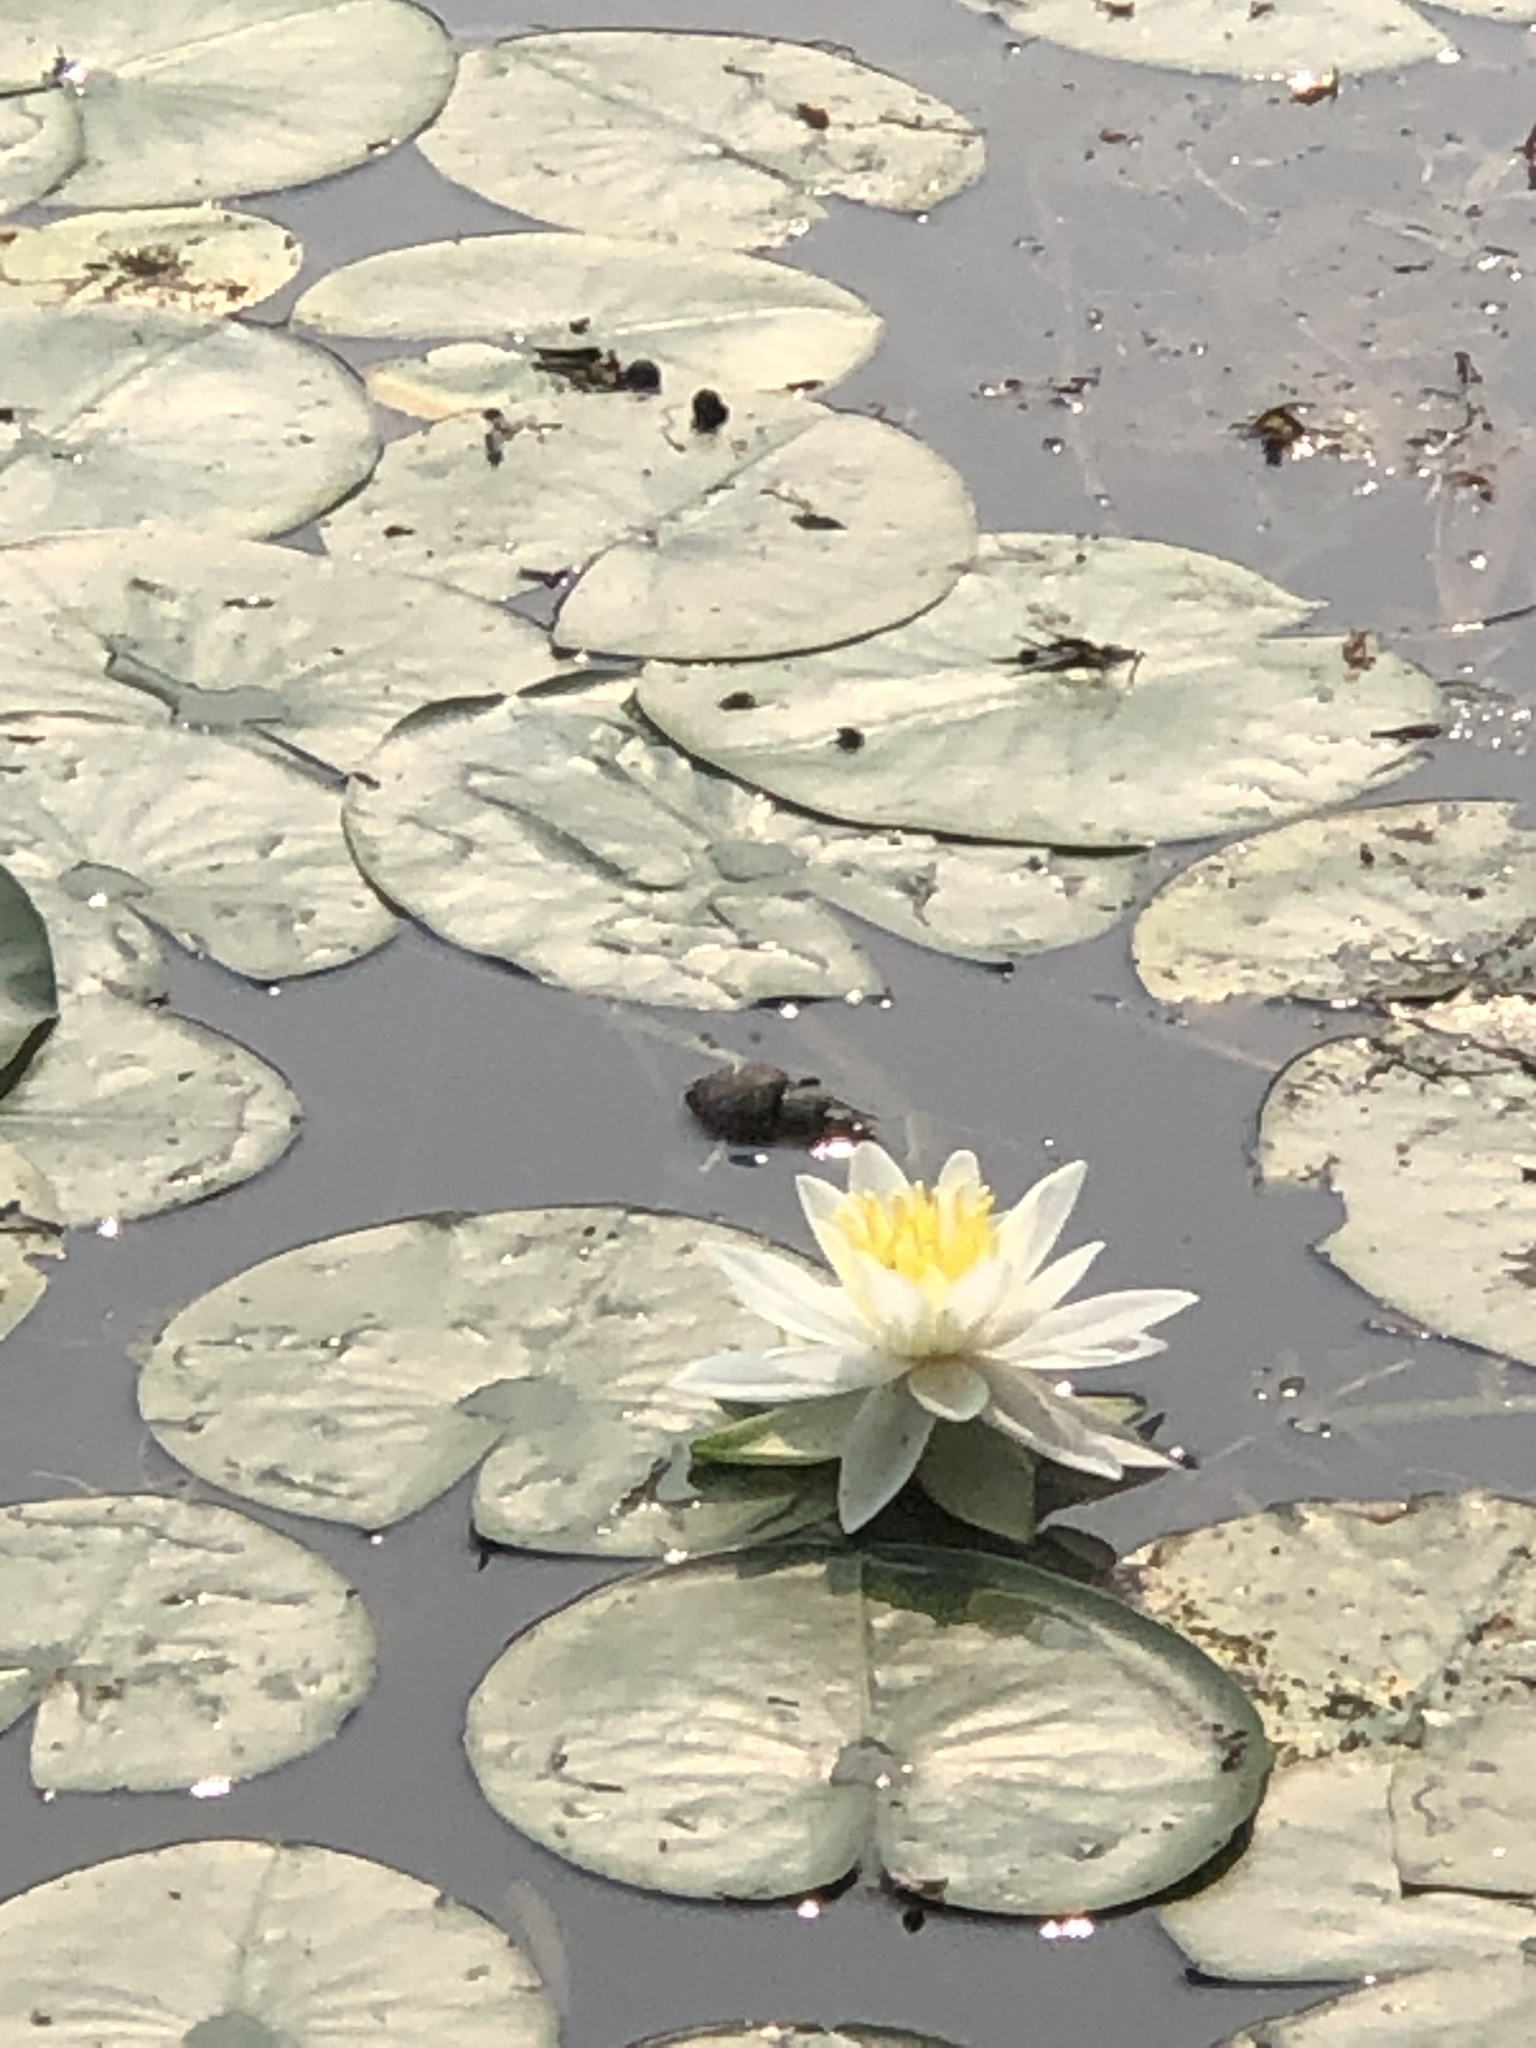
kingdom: Plantae
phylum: Tracheophyta
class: Magnoliopsida
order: Nymphaeales
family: Nymphaeaceae
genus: Nymphaea
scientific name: Nymphaea odorata
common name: Fragrant water-lily
